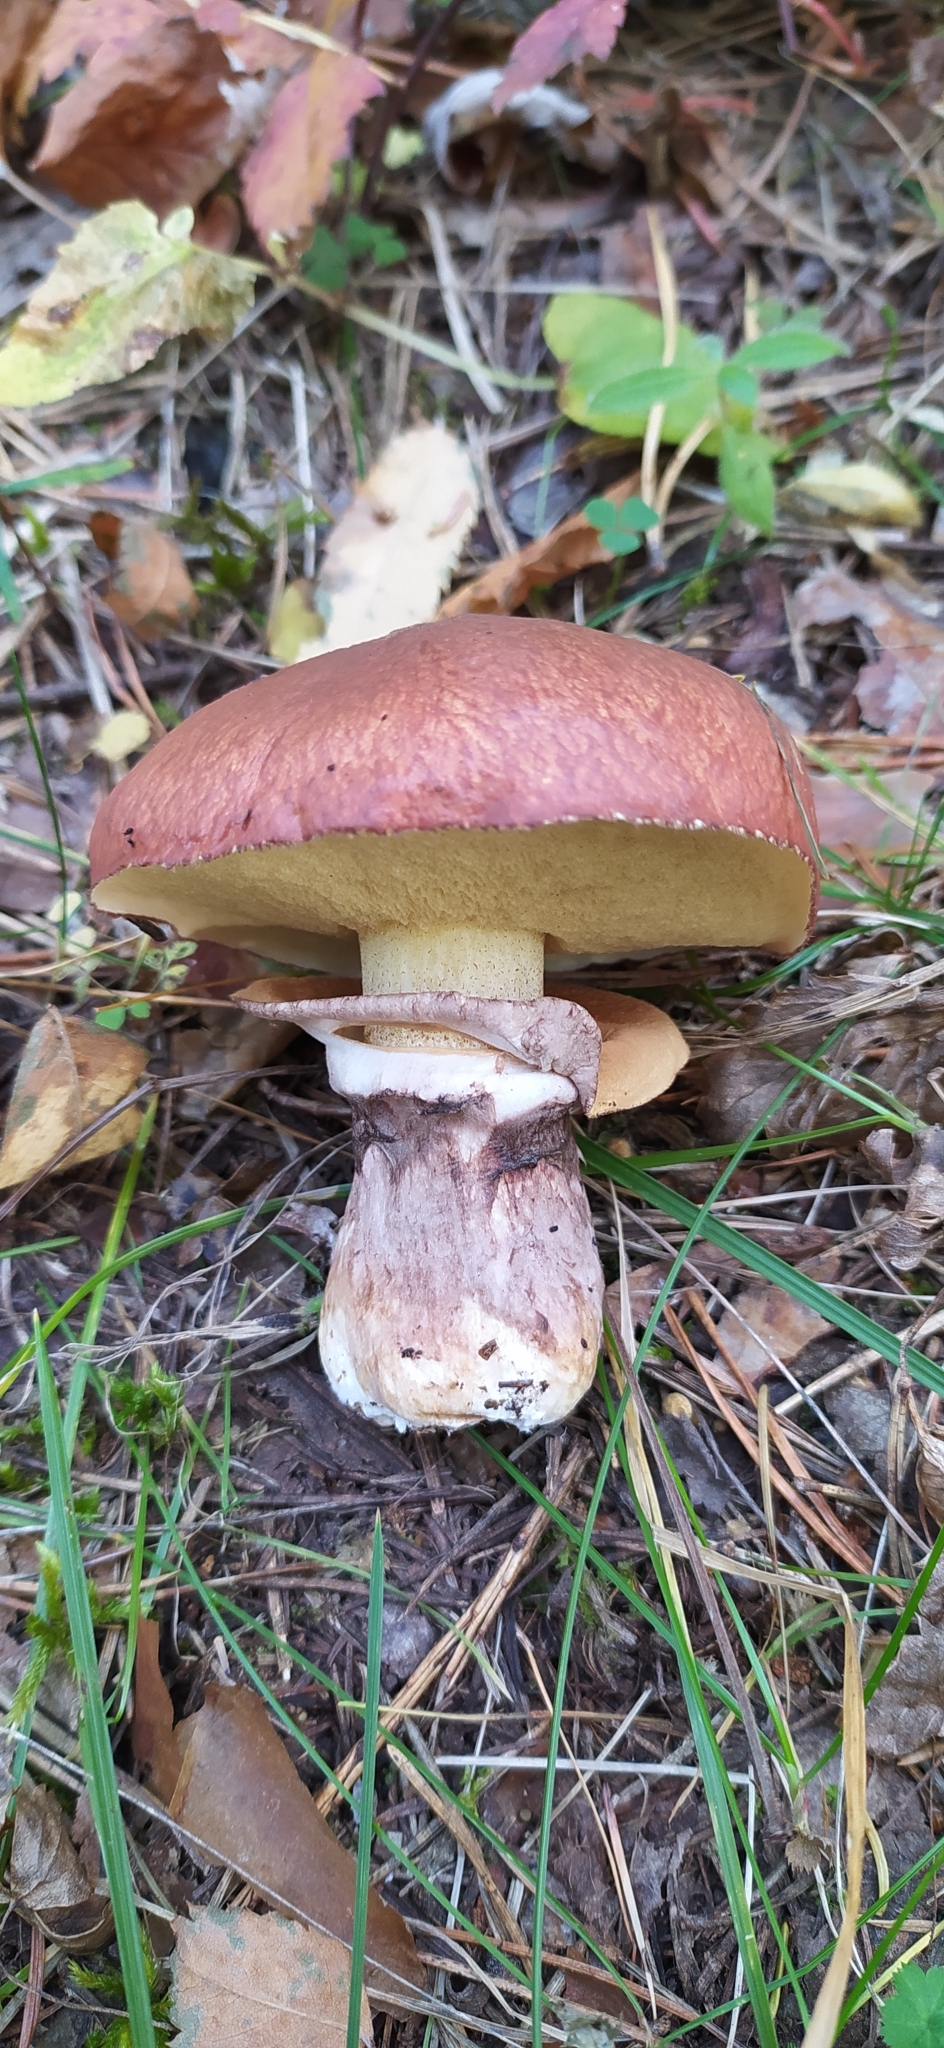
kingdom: Fungi
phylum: Basidiomycota
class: Agaricomycetes
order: Boletales
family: Suillaceae
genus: Suillus
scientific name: Suillus luteus
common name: Slippery jack
